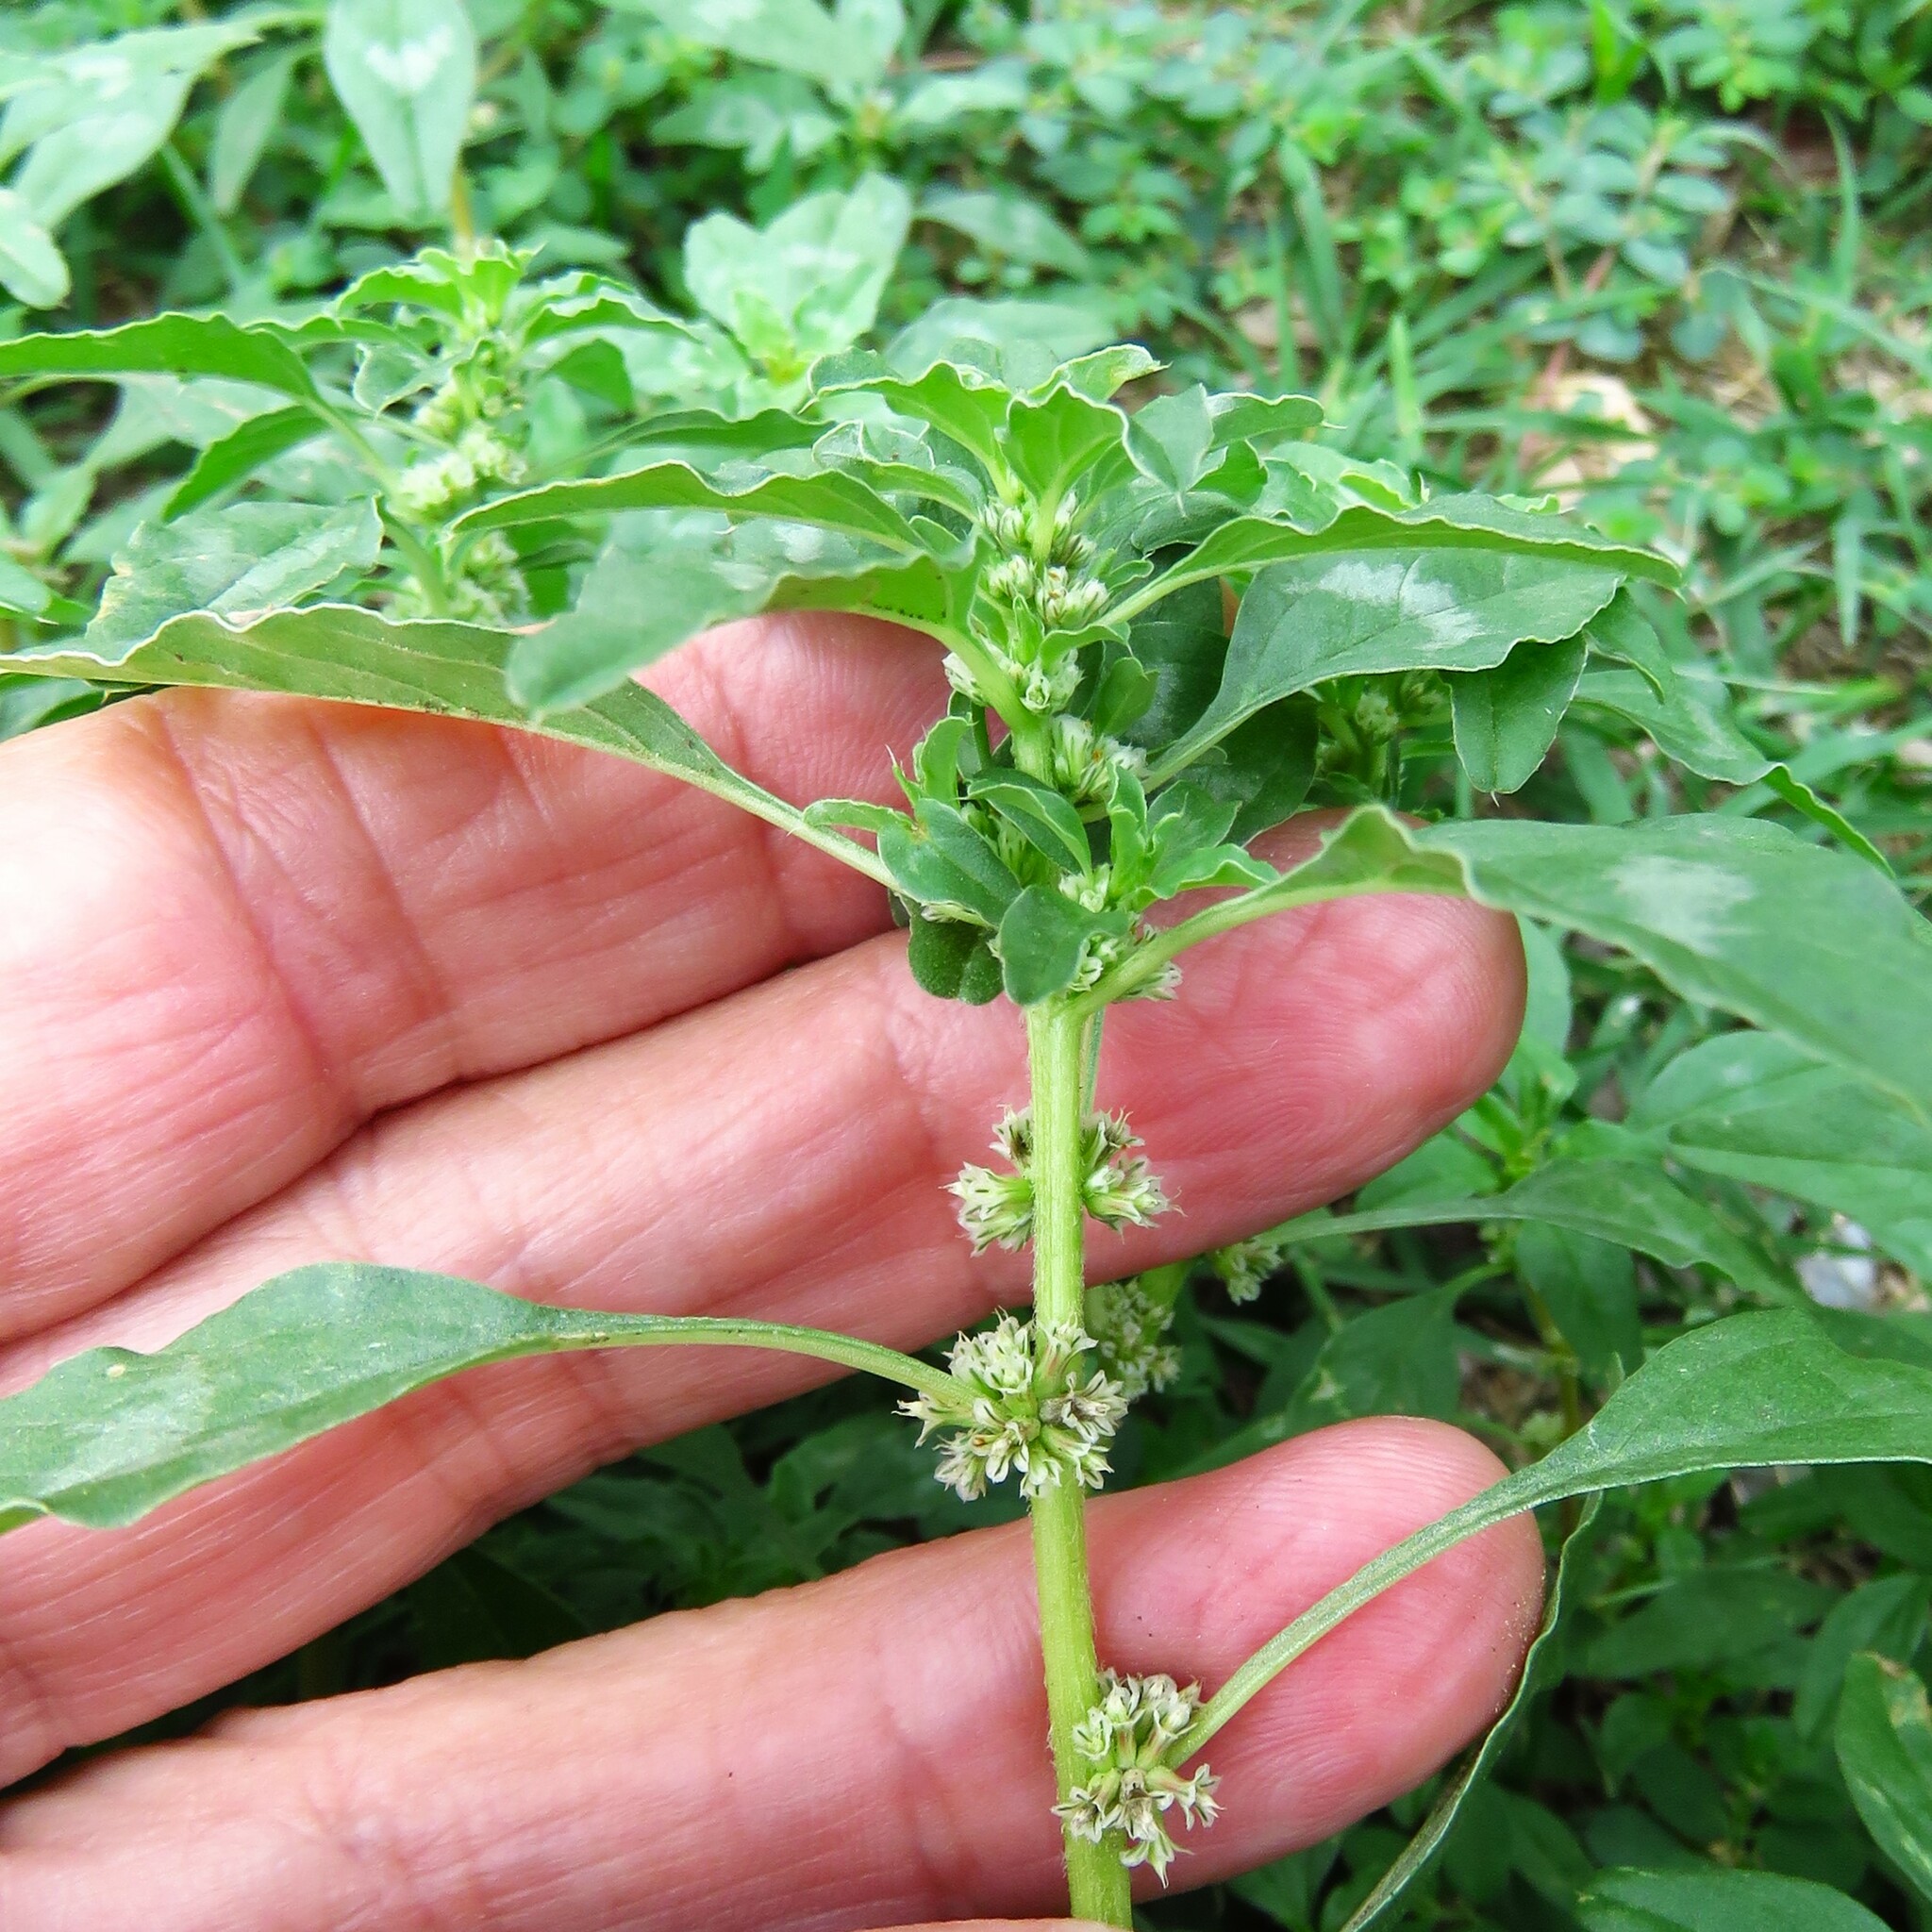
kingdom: Plantae
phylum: Tracheophyta
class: Magnoliopsida
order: Caryophyllales
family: Amaranthaceae
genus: Amaranthus
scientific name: Amaranthus polygonoides
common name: Tropical amaranth
